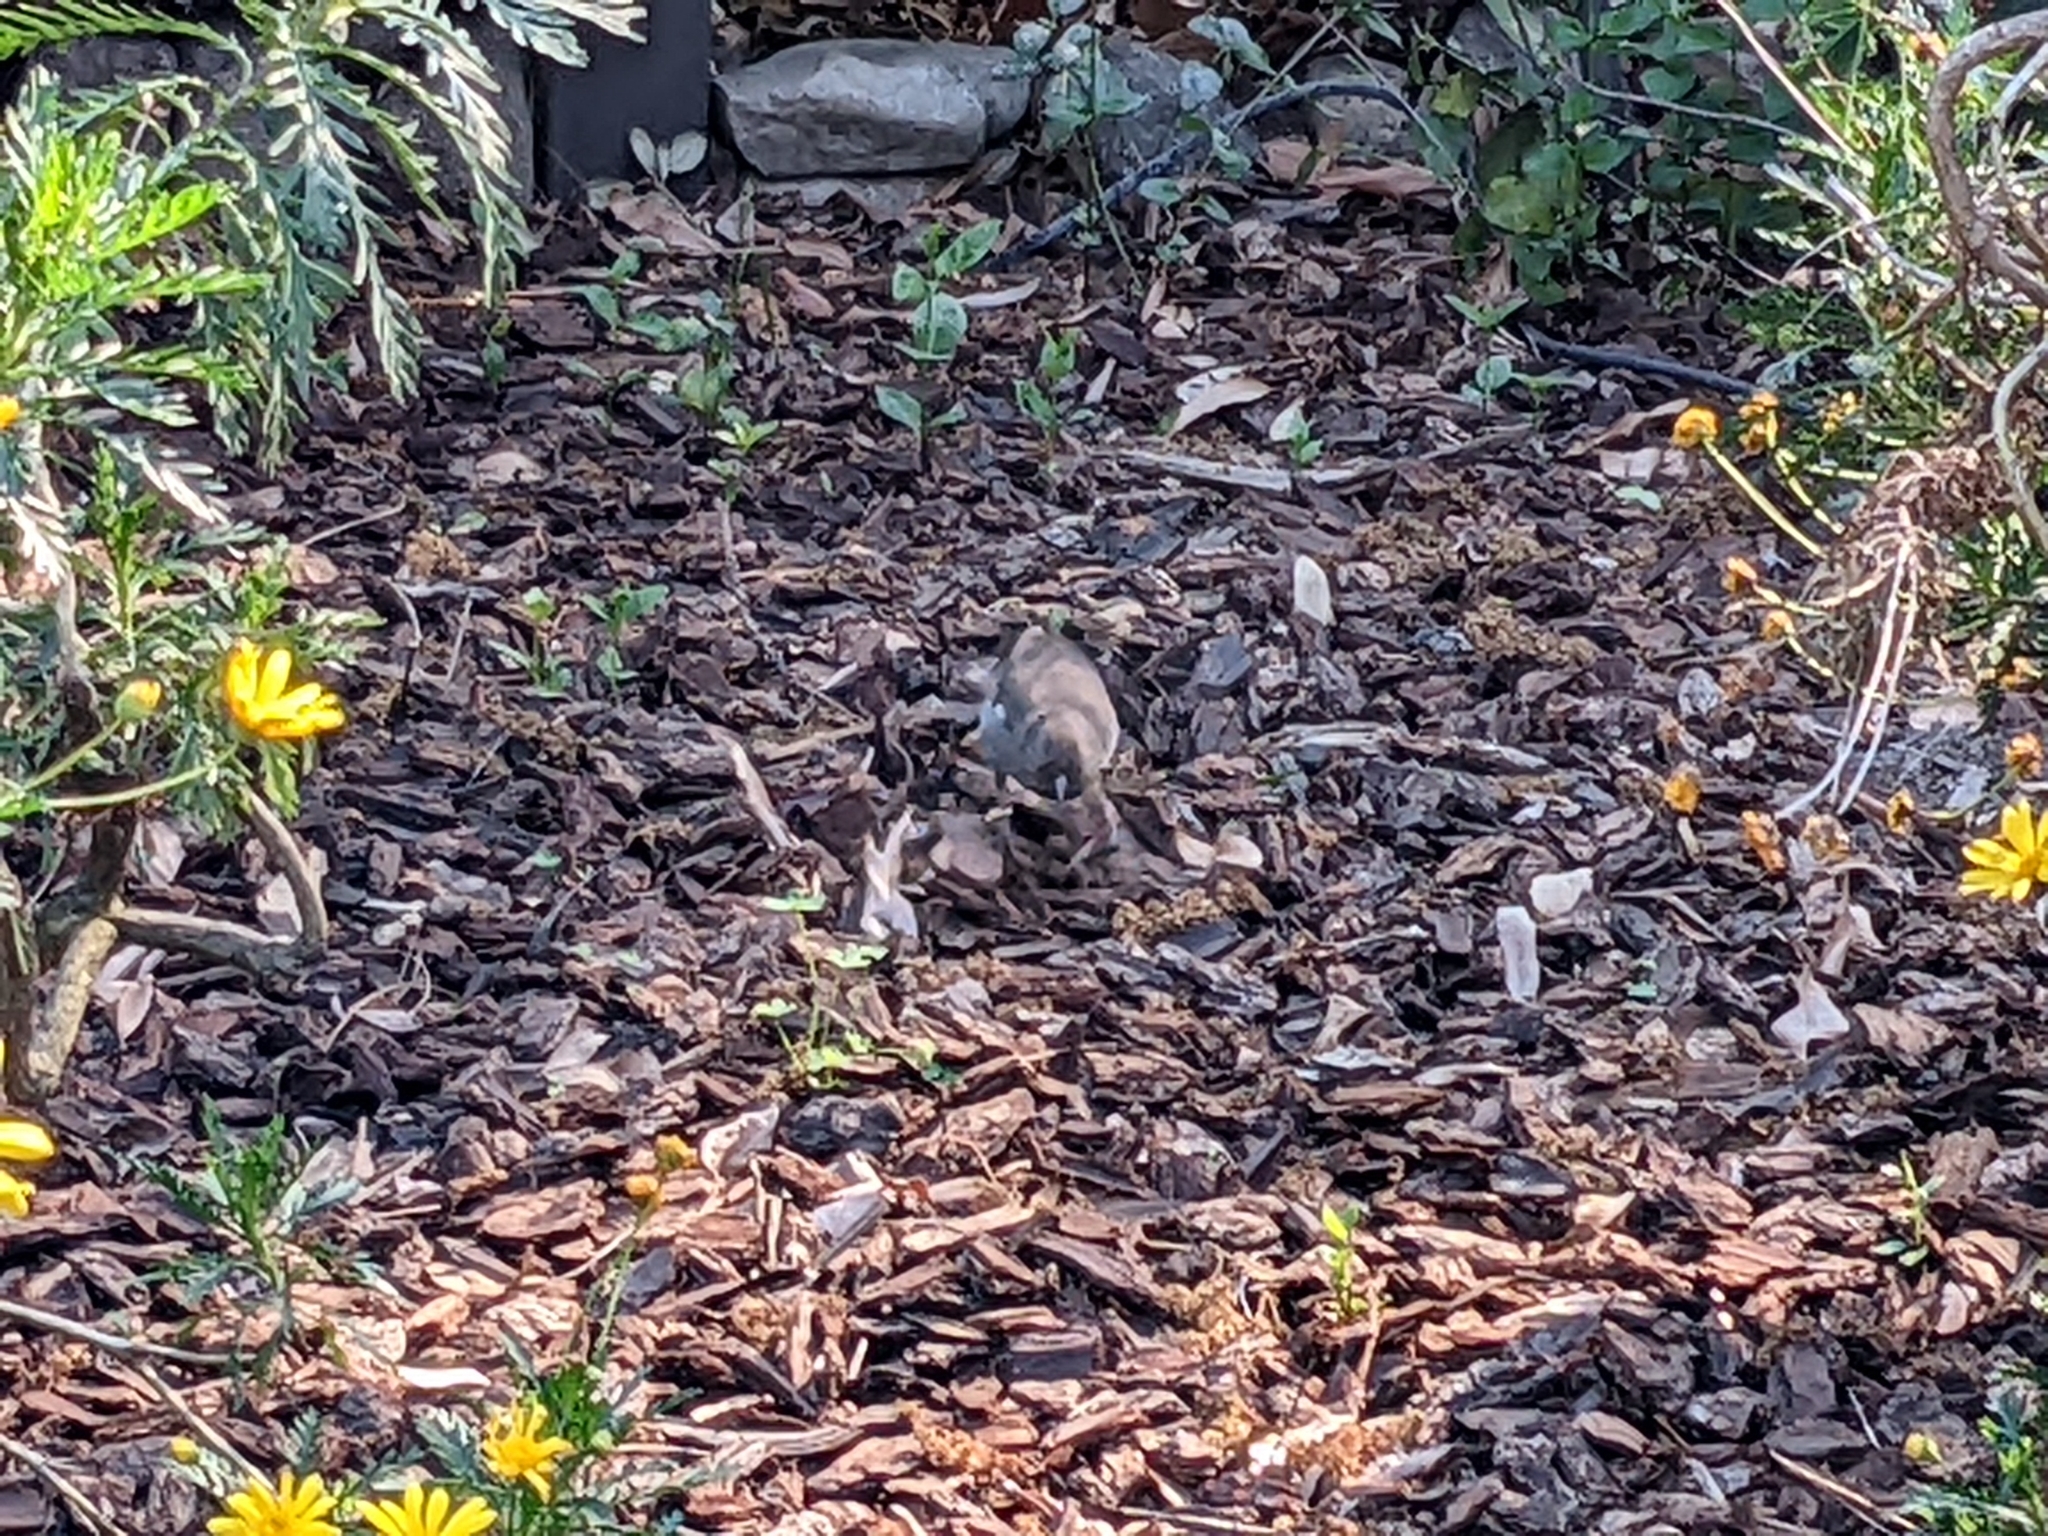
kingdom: Animalia
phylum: Chordata
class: Aves
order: Passeriformes
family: Passerellidae
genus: Melozone
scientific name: Melozone crissalis
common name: California towhee
